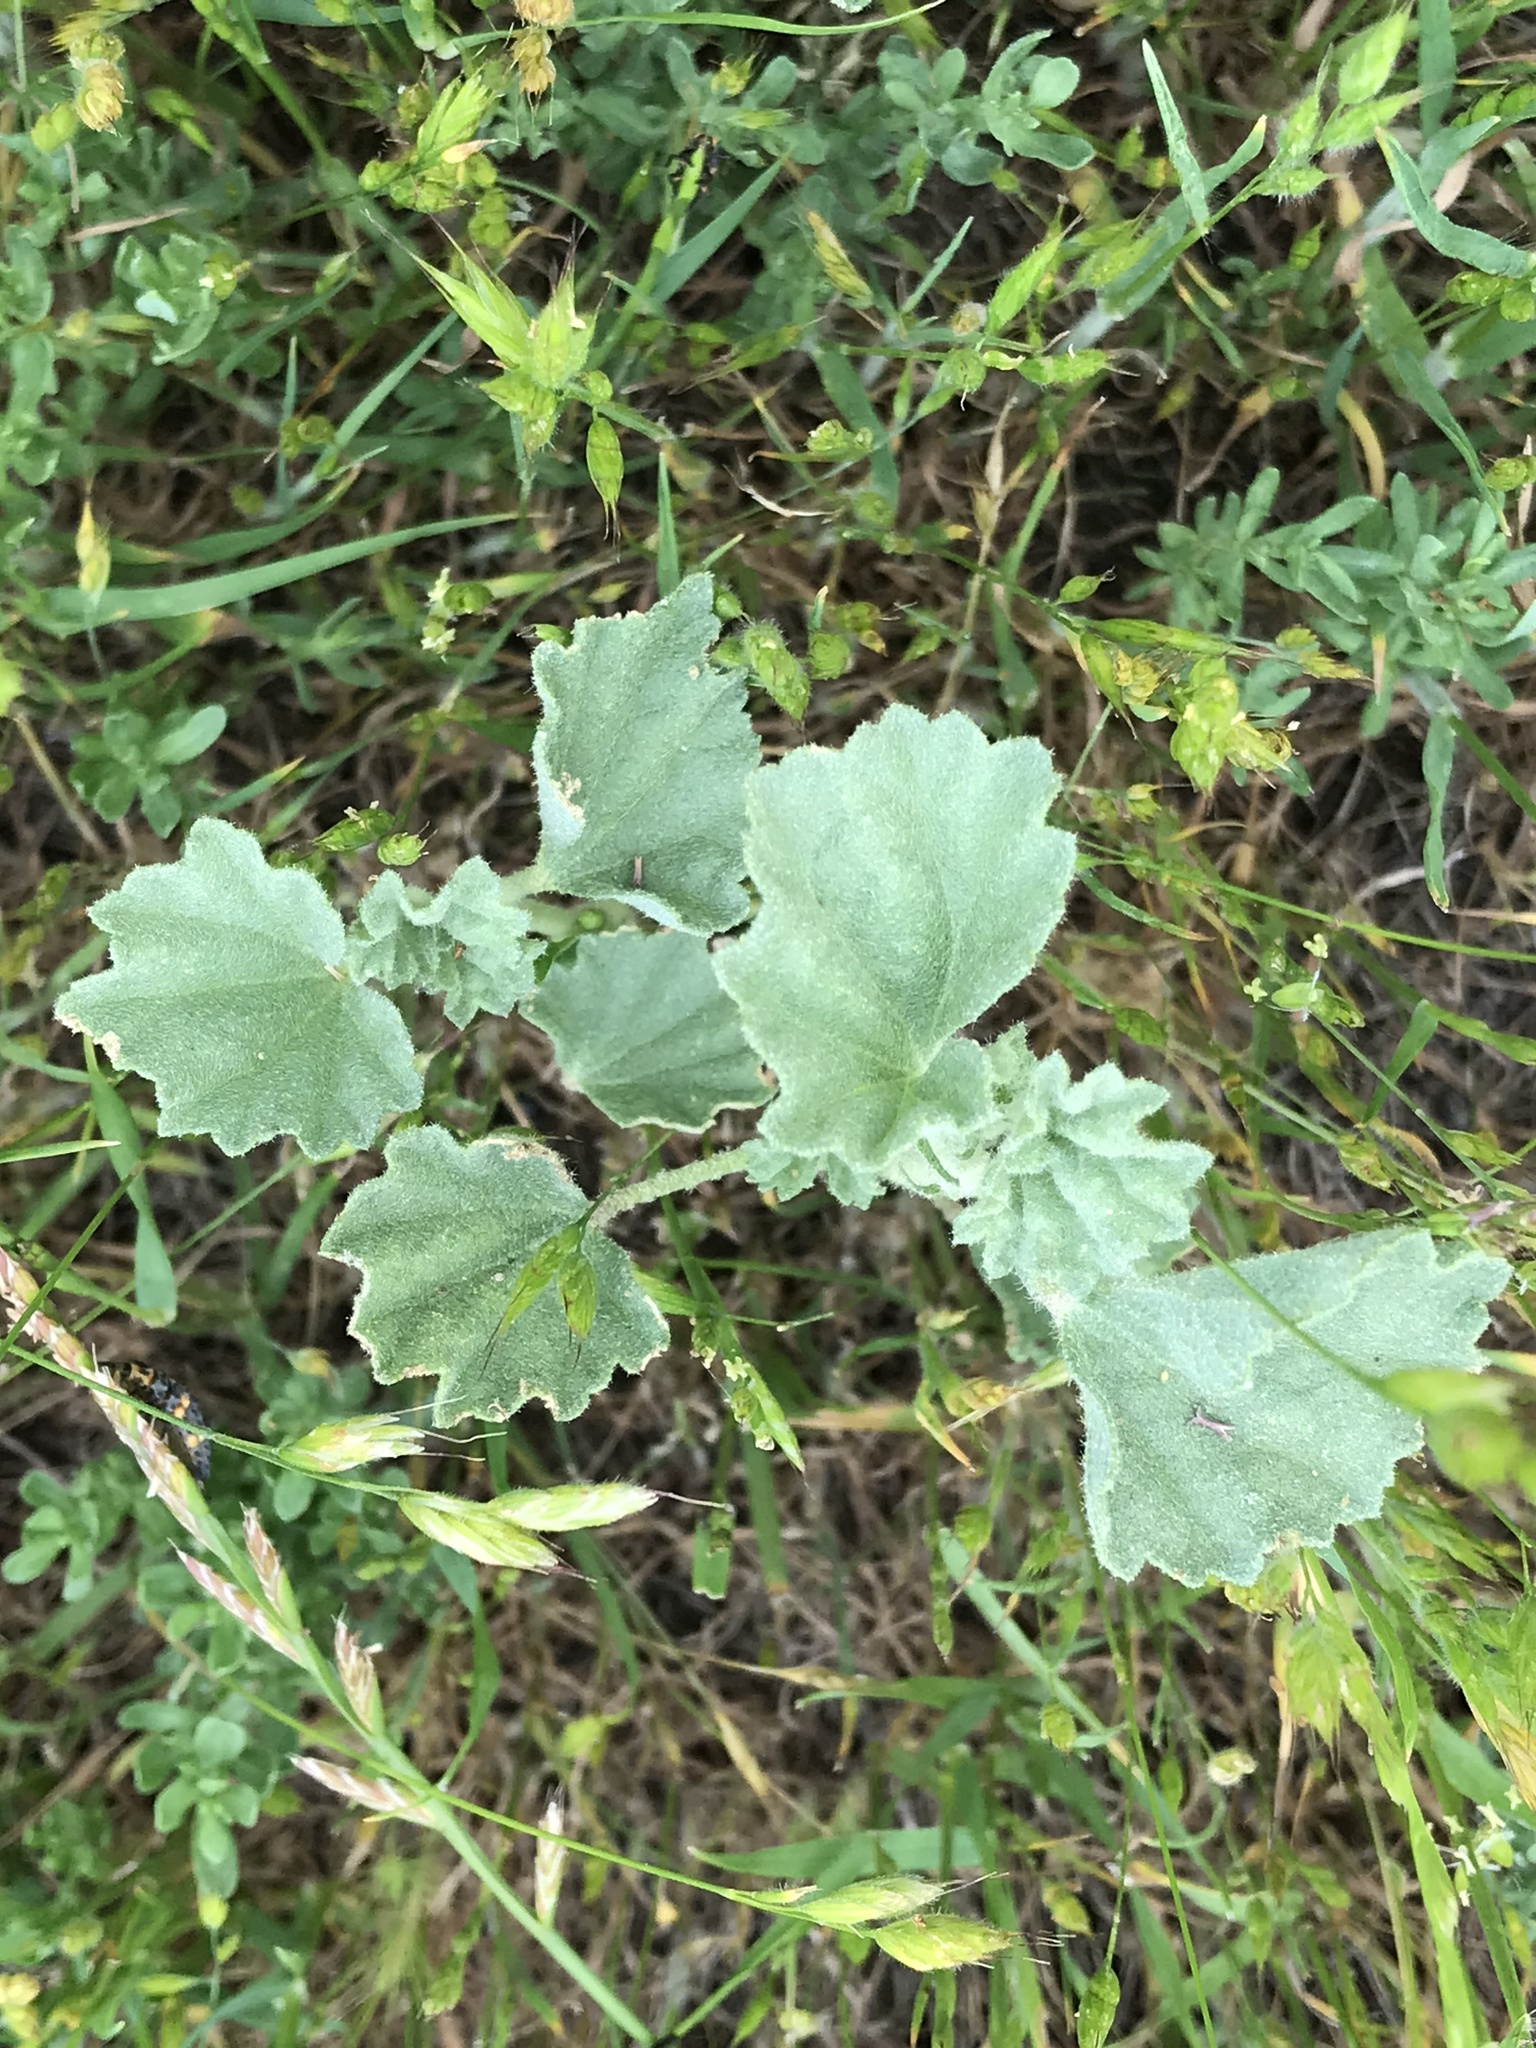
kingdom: Plantae
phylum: Tracheophyta
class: Magnoliopsida
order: Malvales
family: Malvaceae
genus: Malvella
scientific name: Malvella leprosa
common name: Alkali-mallow
